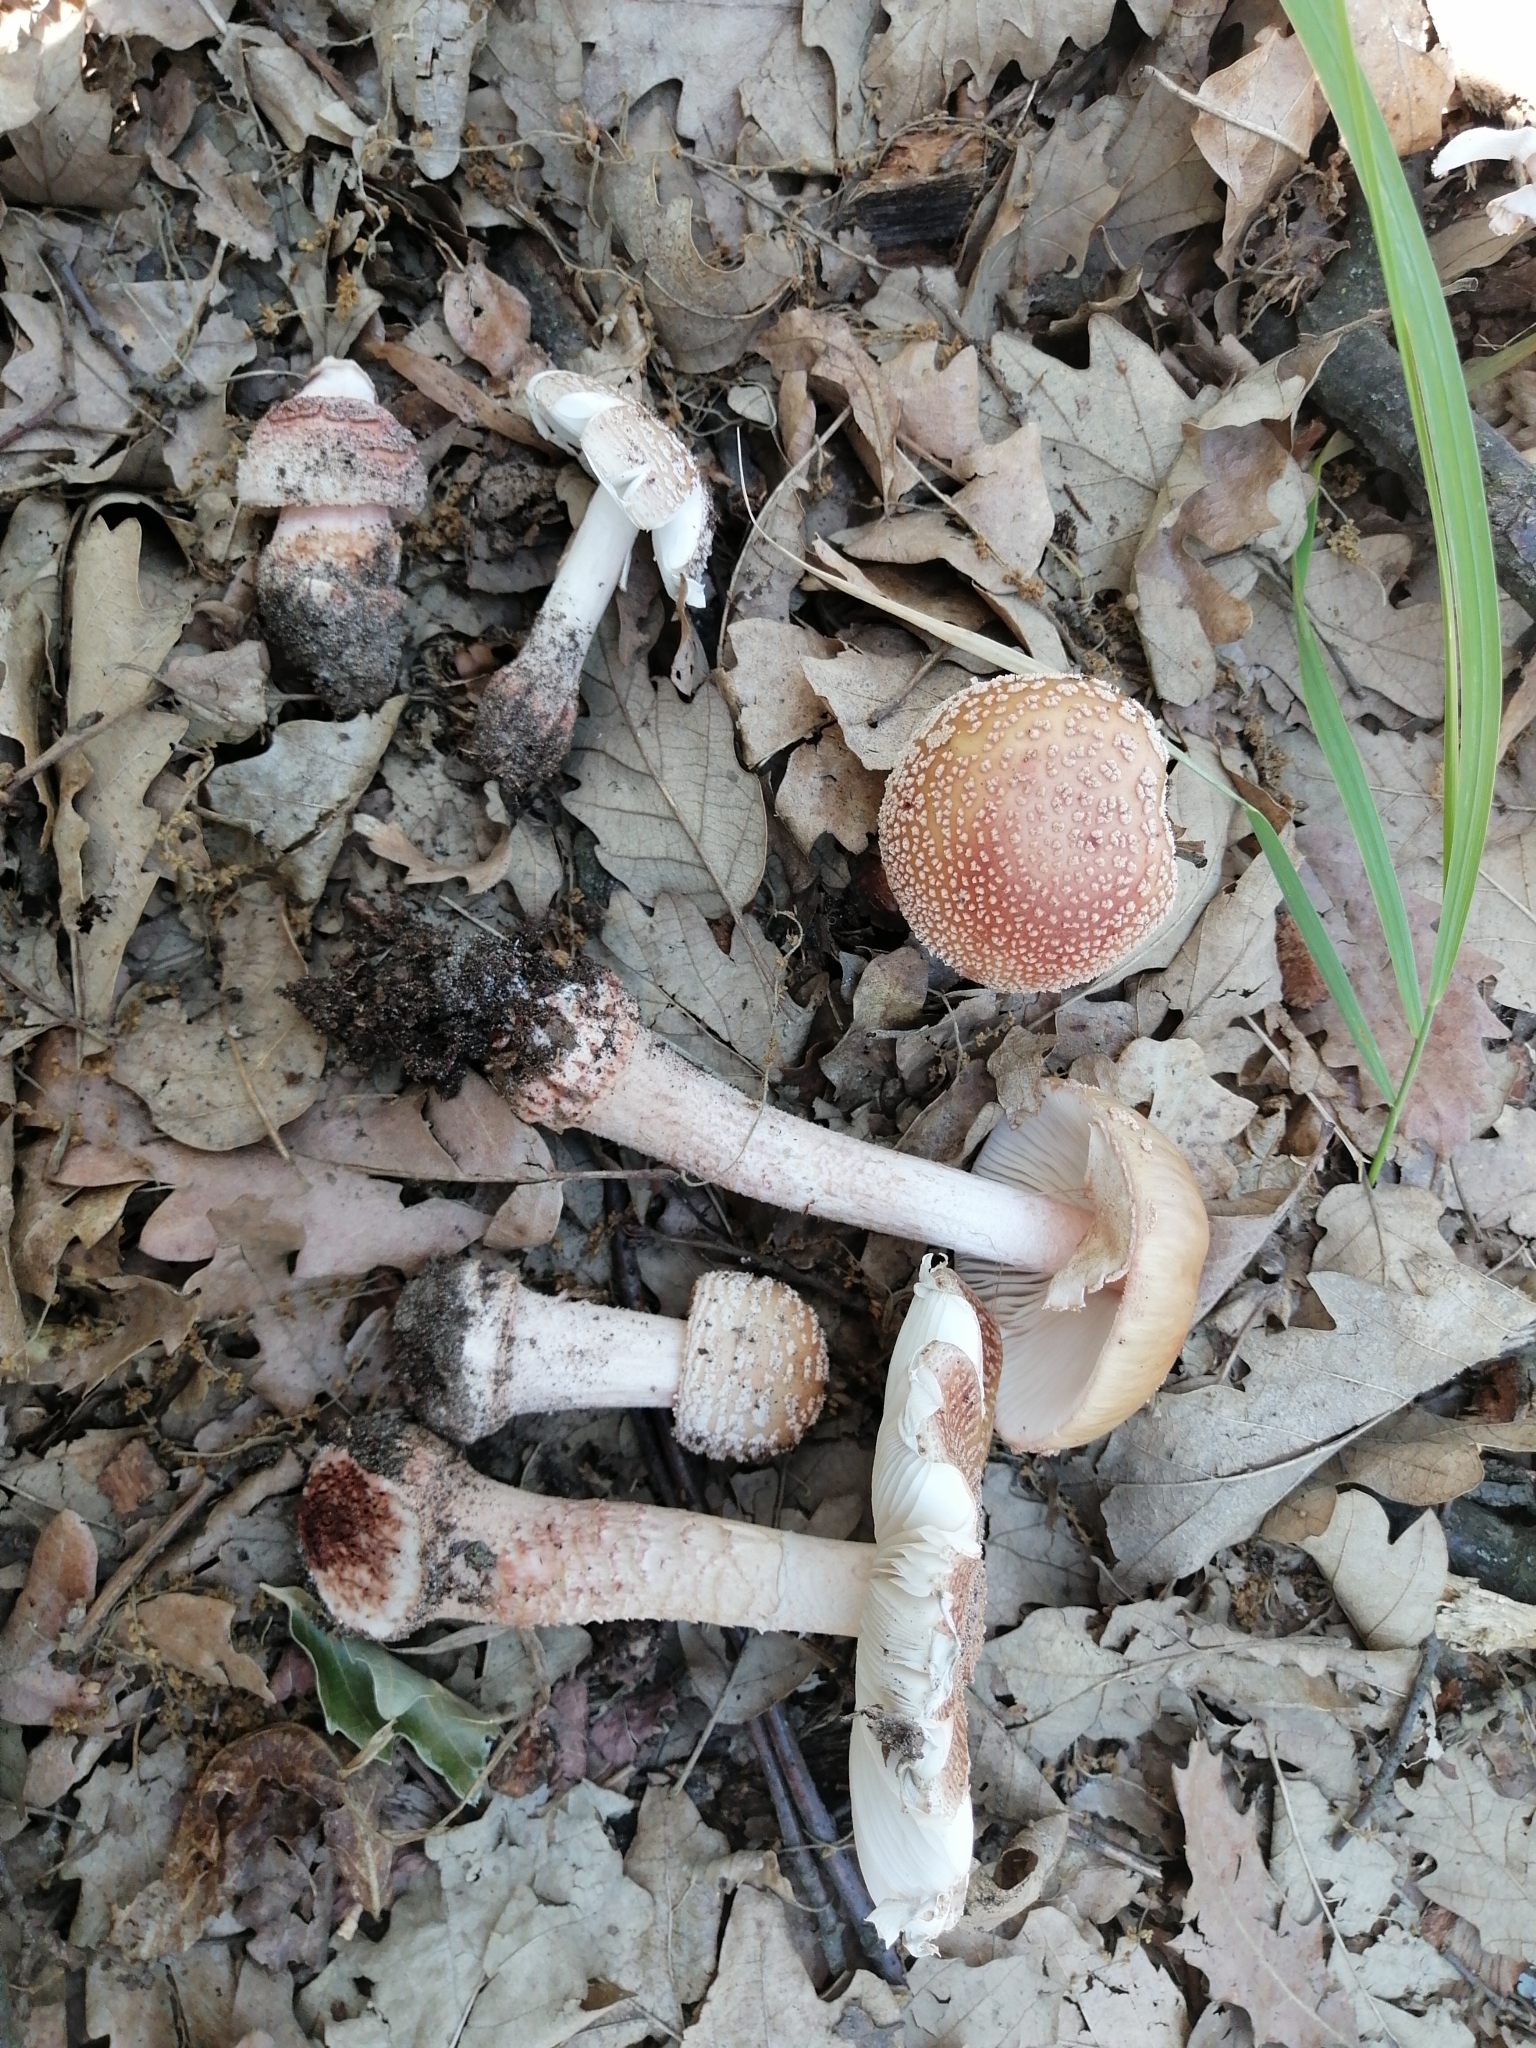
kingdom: Fungi
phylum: Basidiomycota
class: Agaricomycetes
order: Agaricales
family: Amanitaceae
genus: Amanita
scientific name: Amanita rubescens
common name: Blusher
